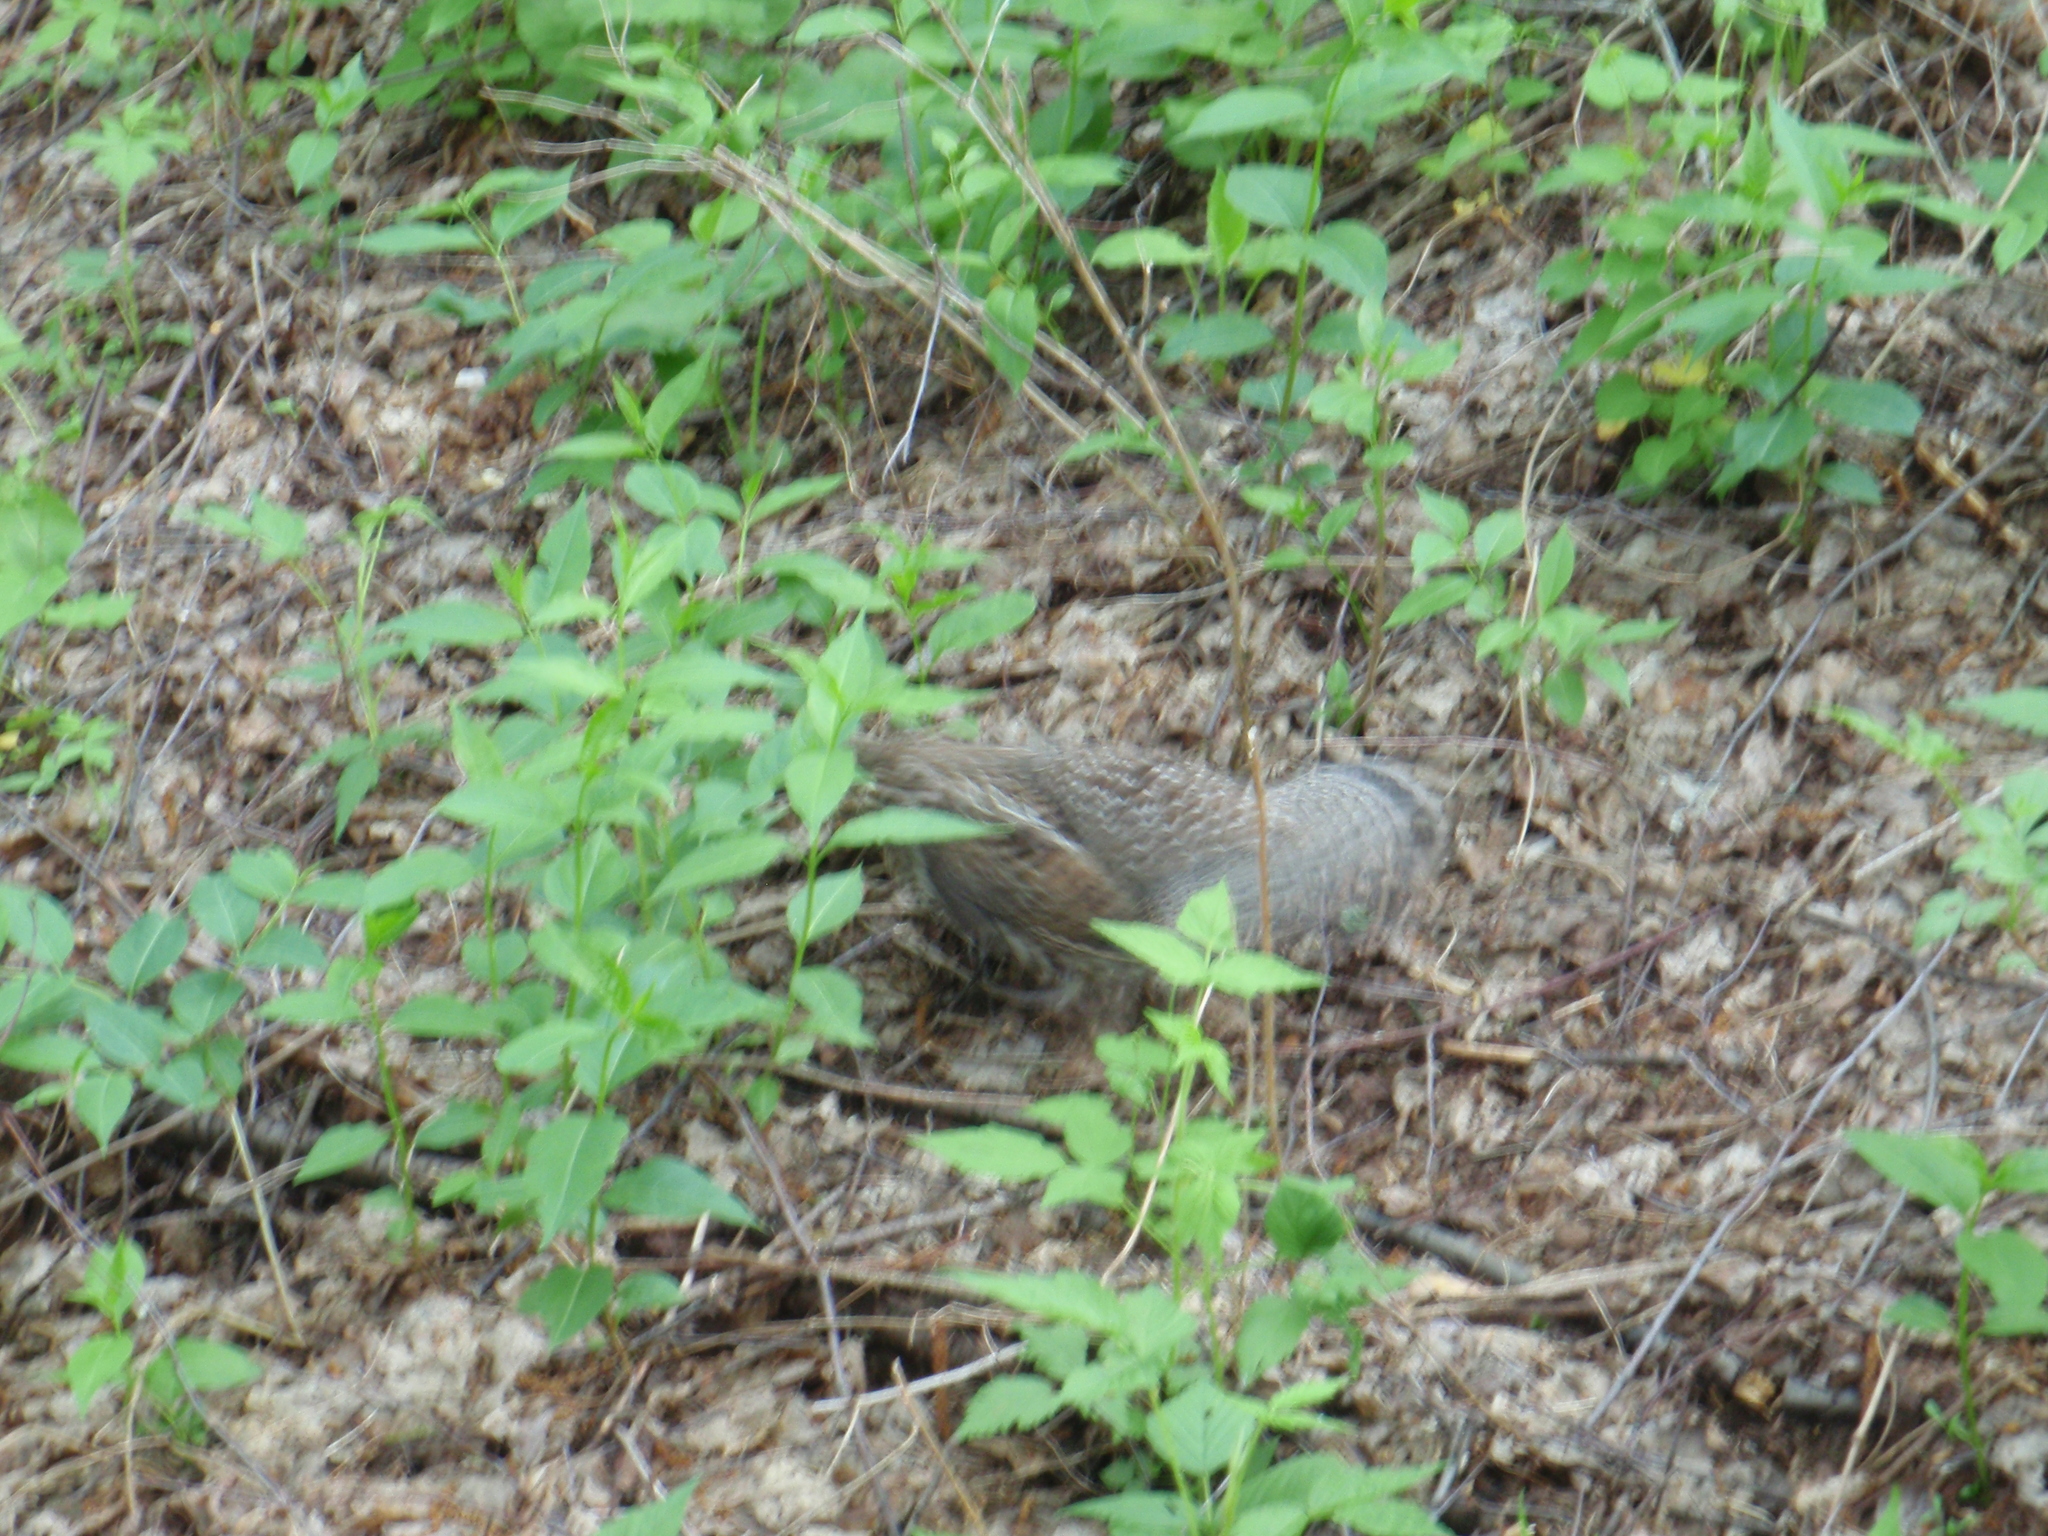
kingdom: Animalia
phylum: Chordata
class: Aves
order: Galliformes
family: Phasianidae
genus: Bonasa
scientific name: Bonasa umbellus
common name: Ruffed grouse
